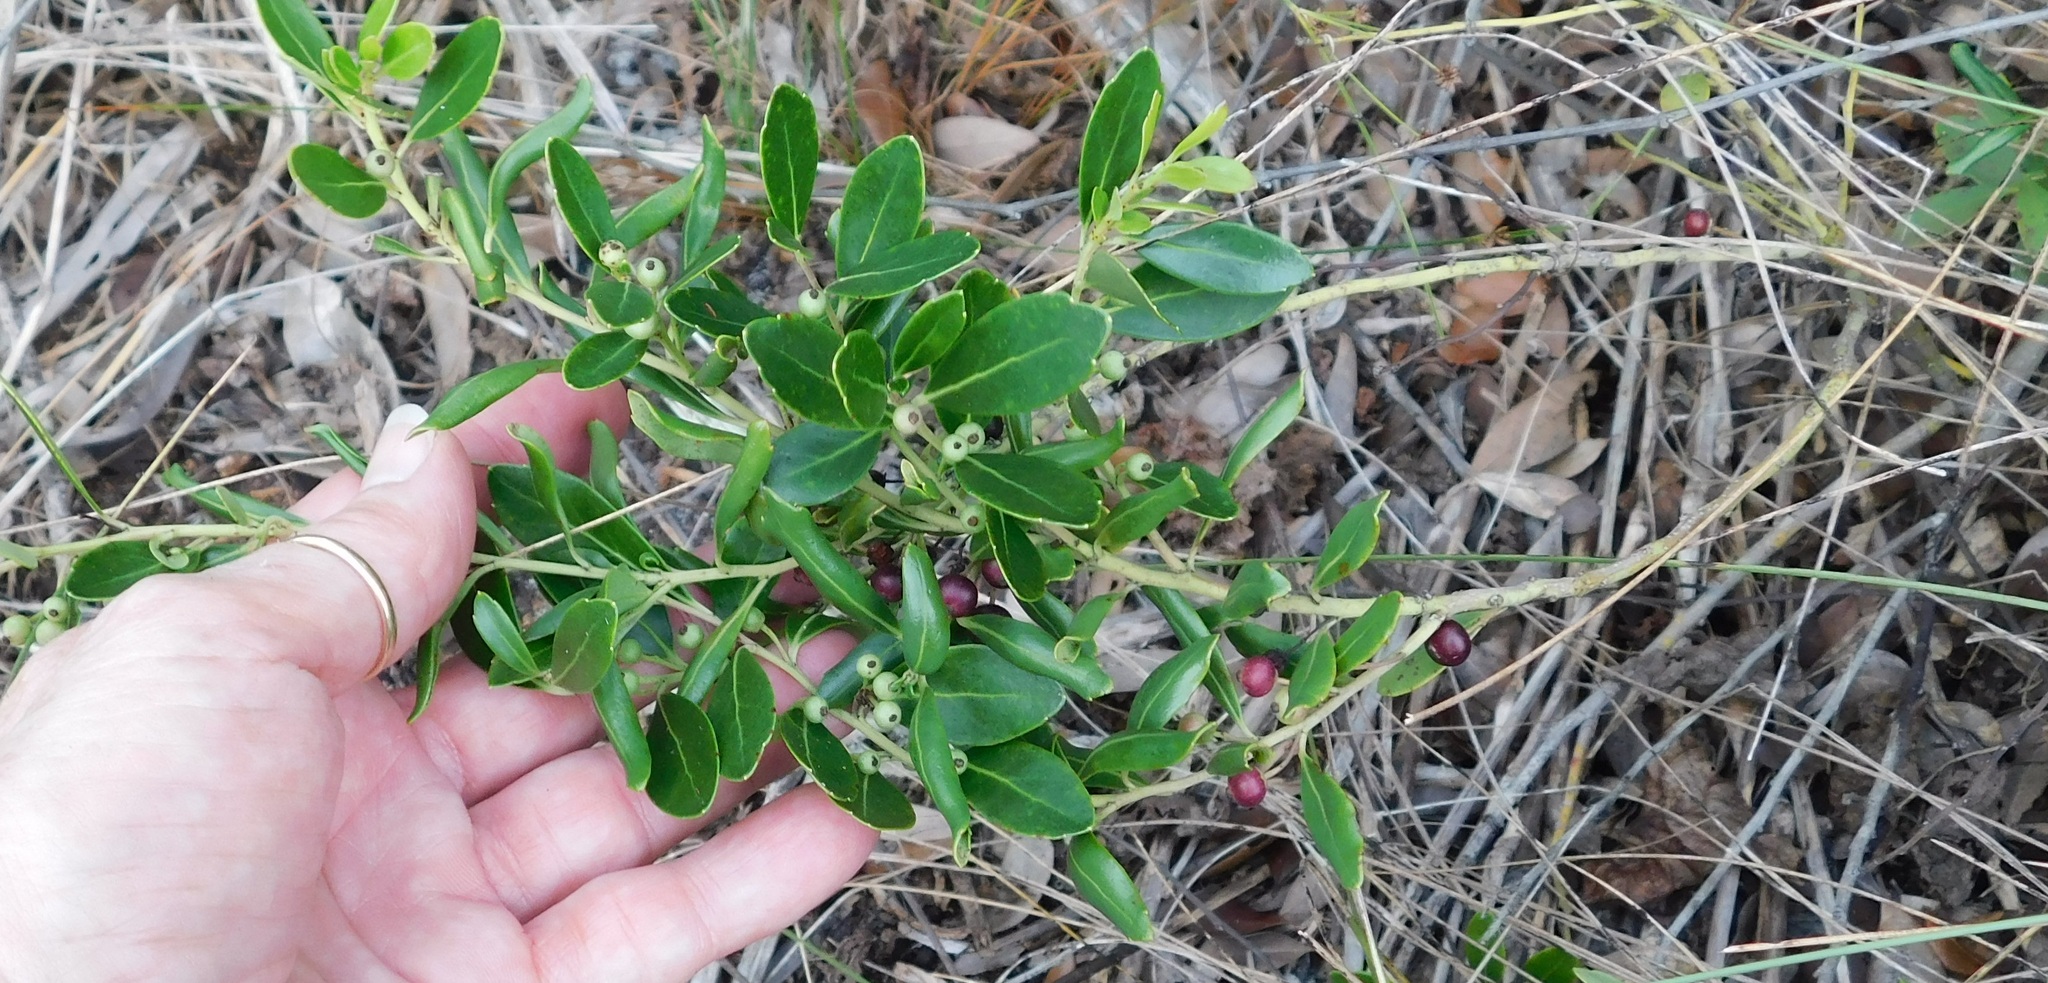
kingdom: Plantae
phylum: Tracheophyta
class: Magnoliopsida
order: Aquifoliales
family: Aquifoliaceae
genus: Ilex
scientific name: Ilex glabra
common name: Bitter gallberry
